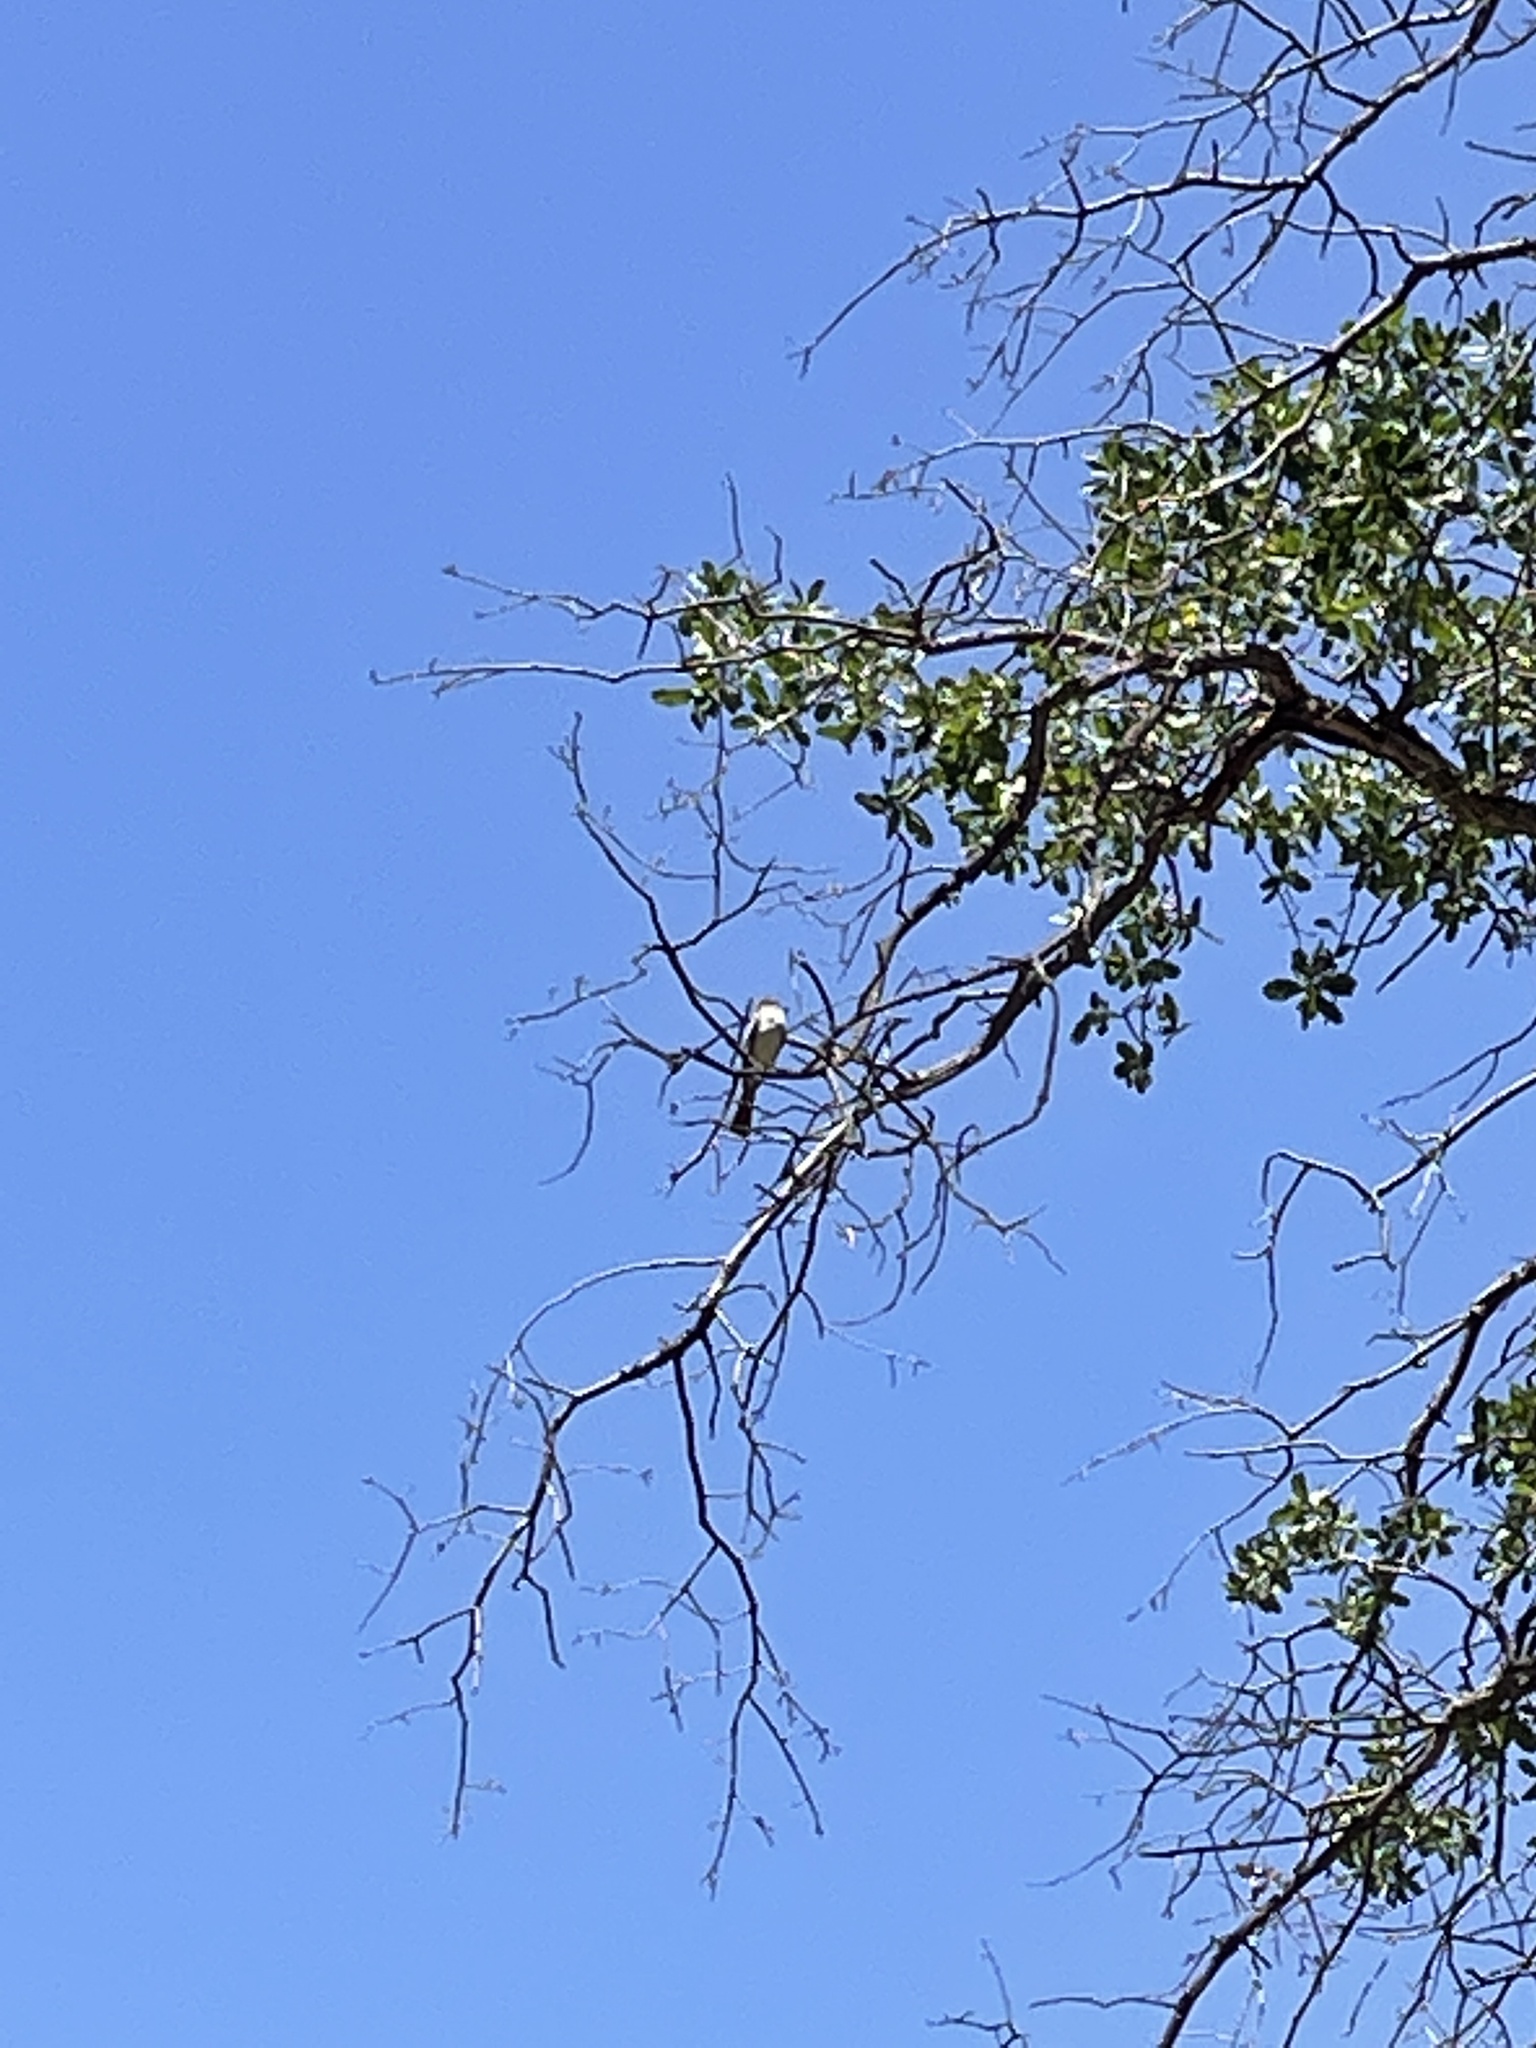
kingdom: Animalia
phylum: Chordata
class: Aves
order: Passeriformes
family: Tyrannidae
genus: Myiarchus
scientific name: Myiarchus cinerascens
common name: Ash-throated flycatcher
